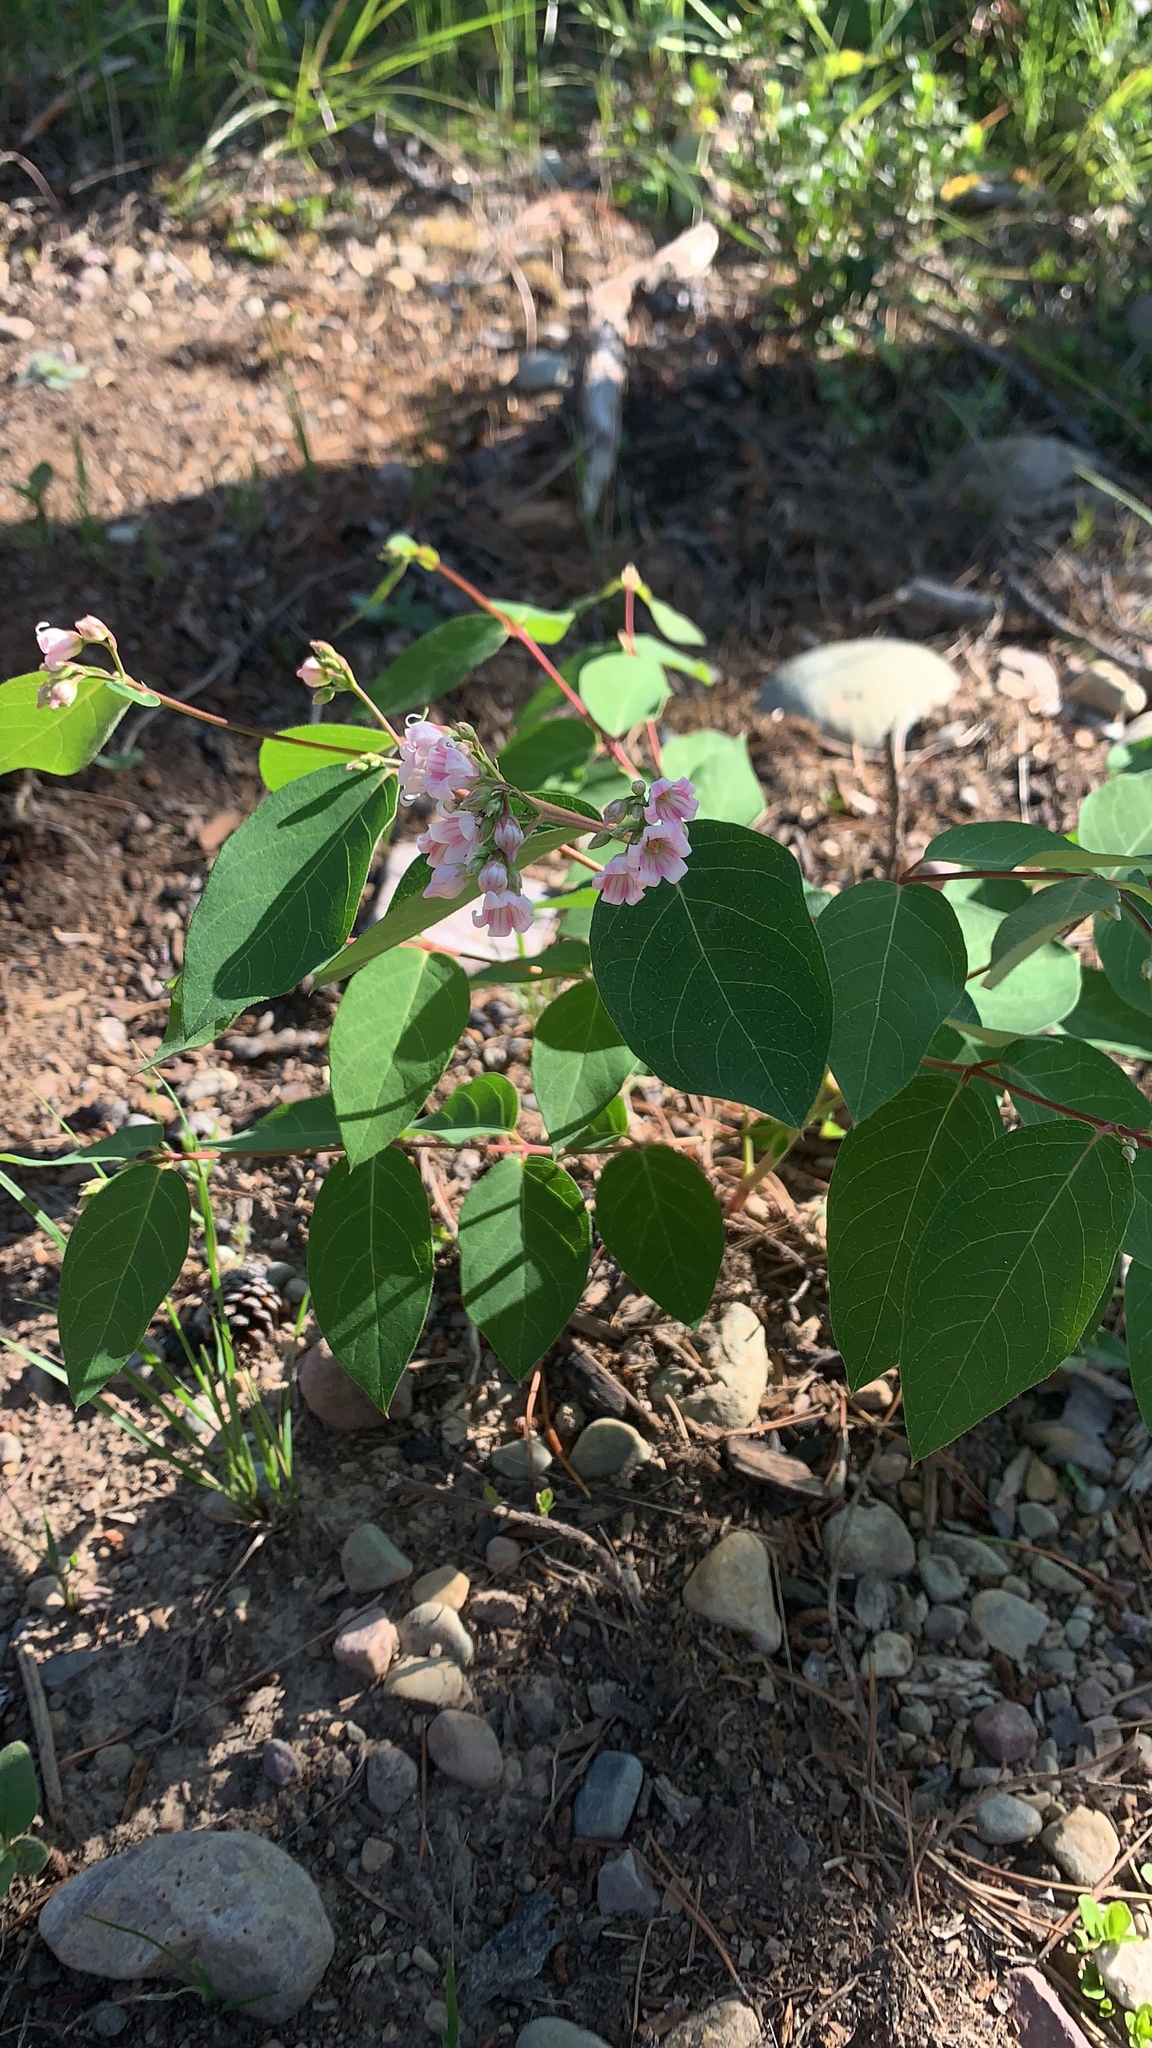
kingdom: Plantae
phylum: Tracheophyta
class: Magnoliopsida
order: Gentianales
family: Apocynaceae
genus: Apocynum
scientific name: Apocynum androsaemifolium
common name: Spreading dogbane
